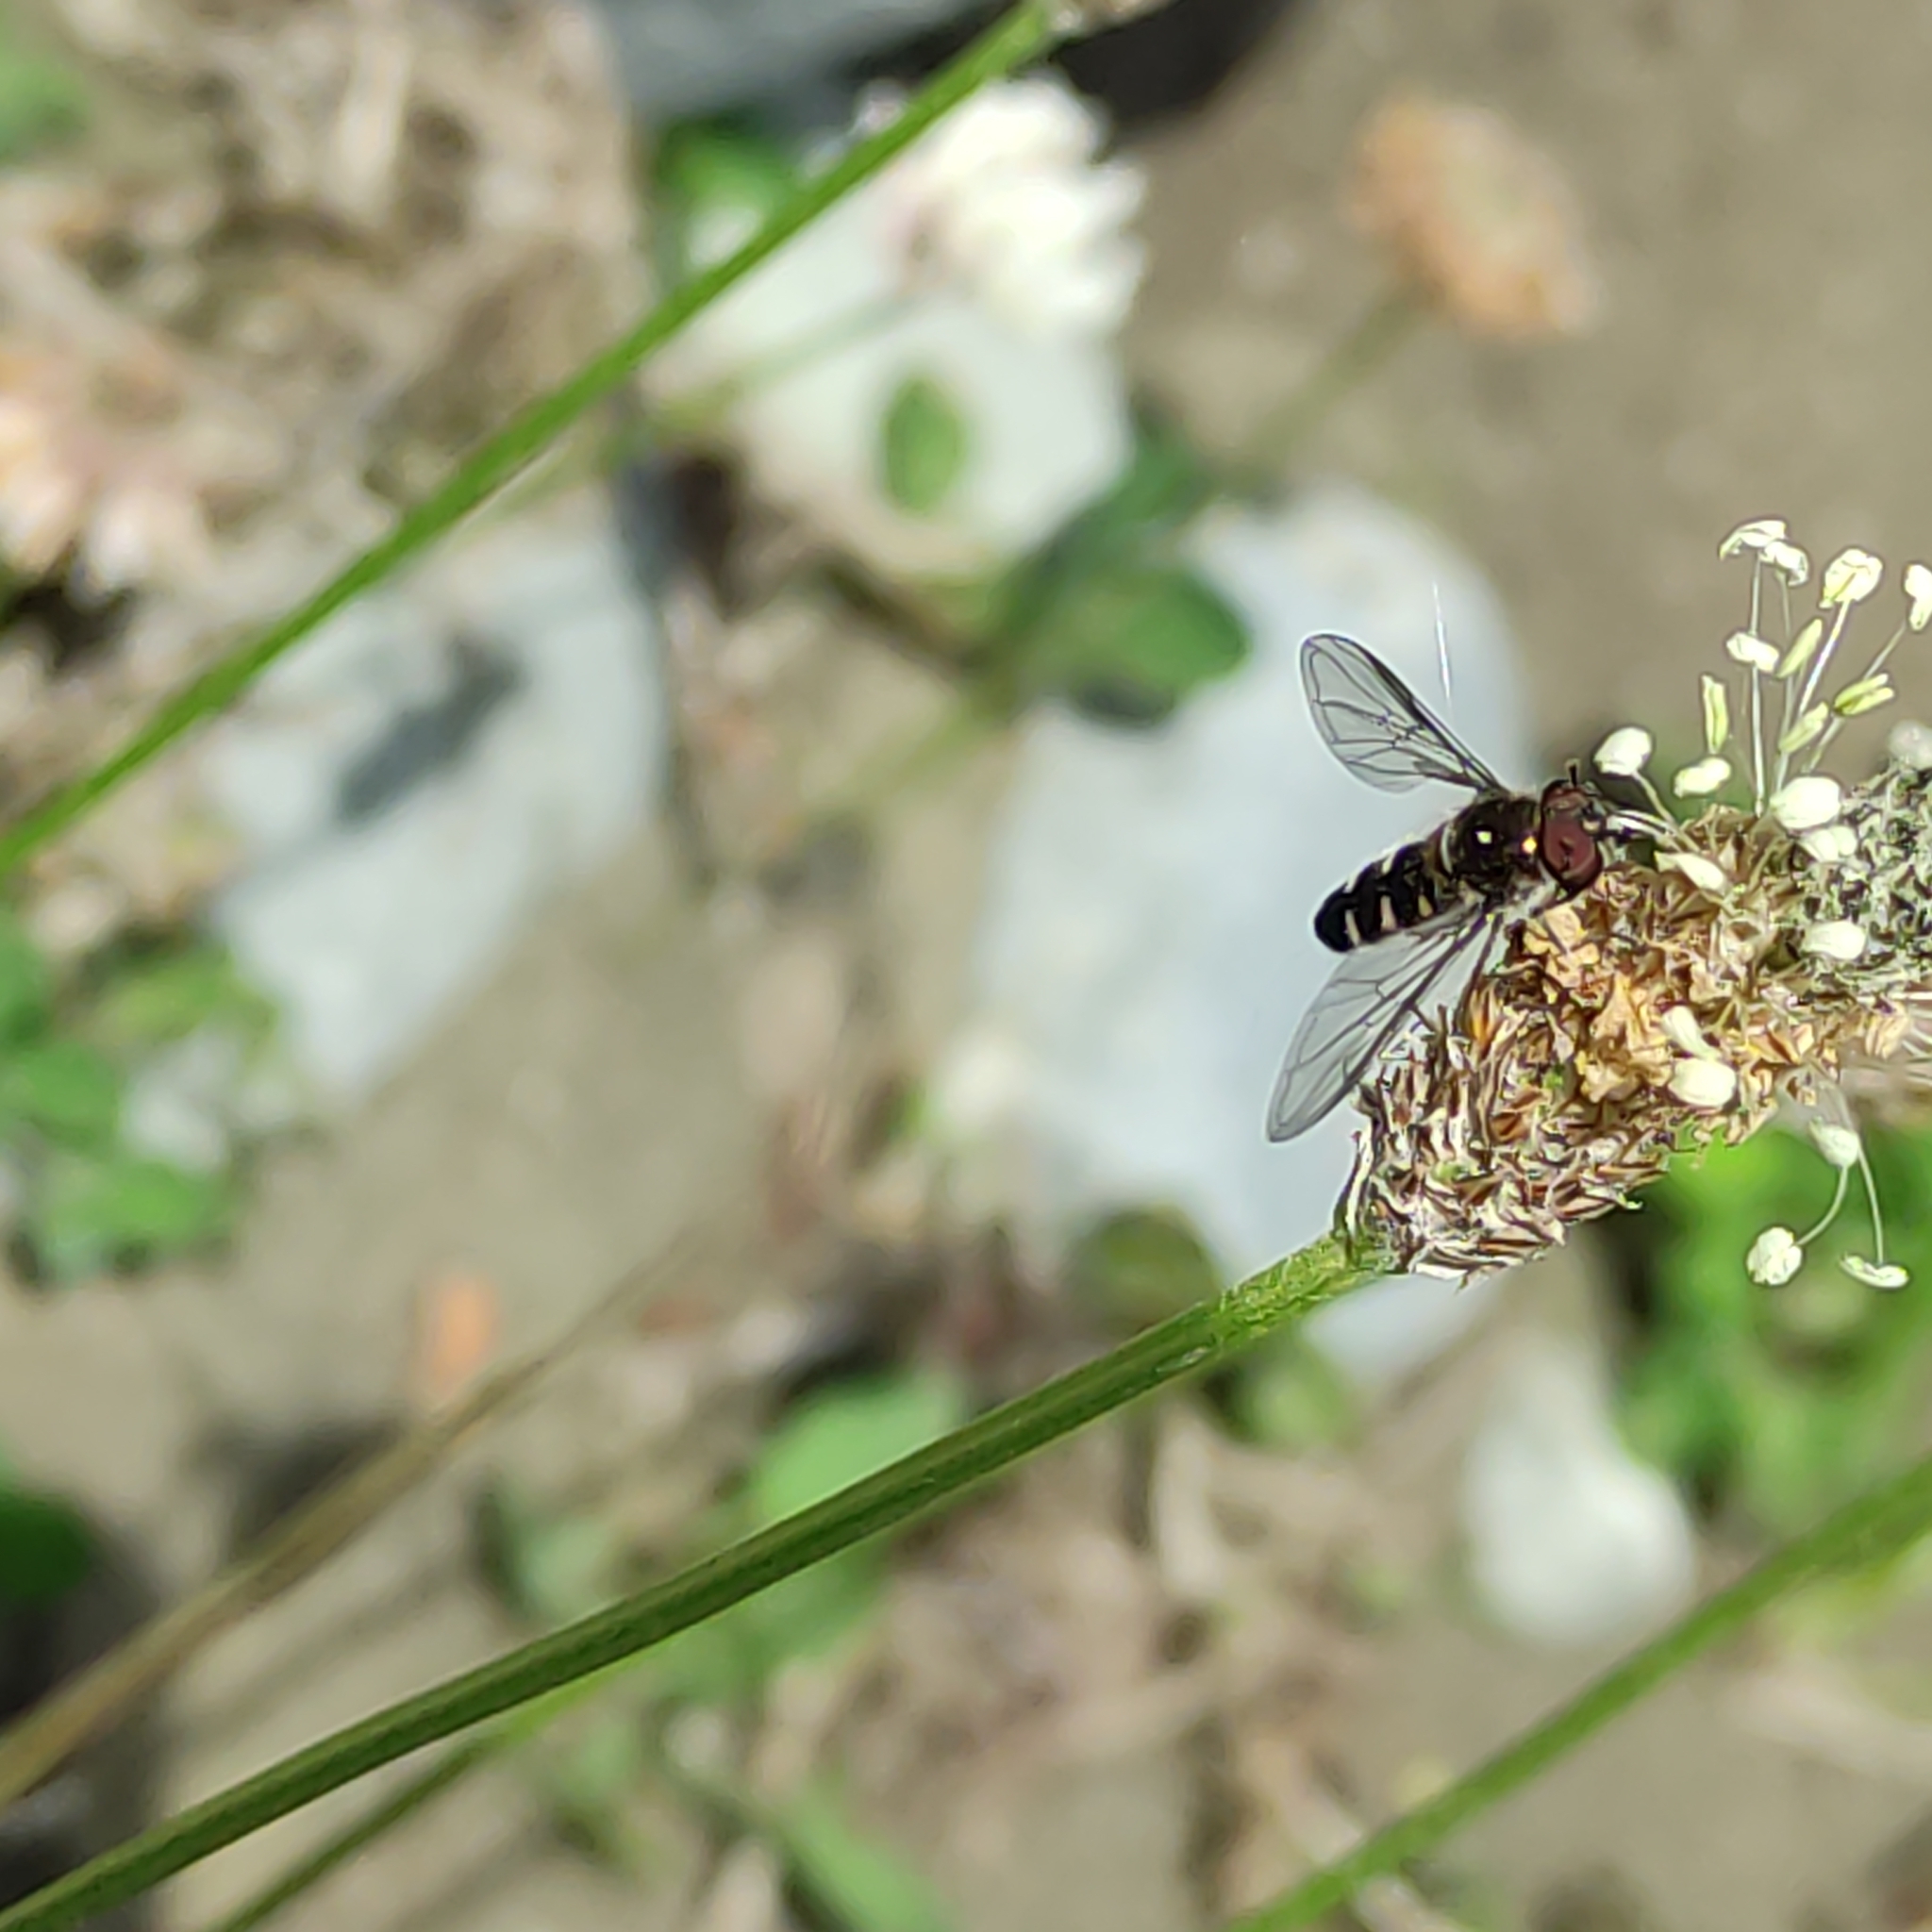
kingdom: Animalia
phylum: Arthropoda
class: Insecta
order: Diptera
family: Syrphidae
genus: Melangyna
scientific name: Melangyna novaezelandiae
